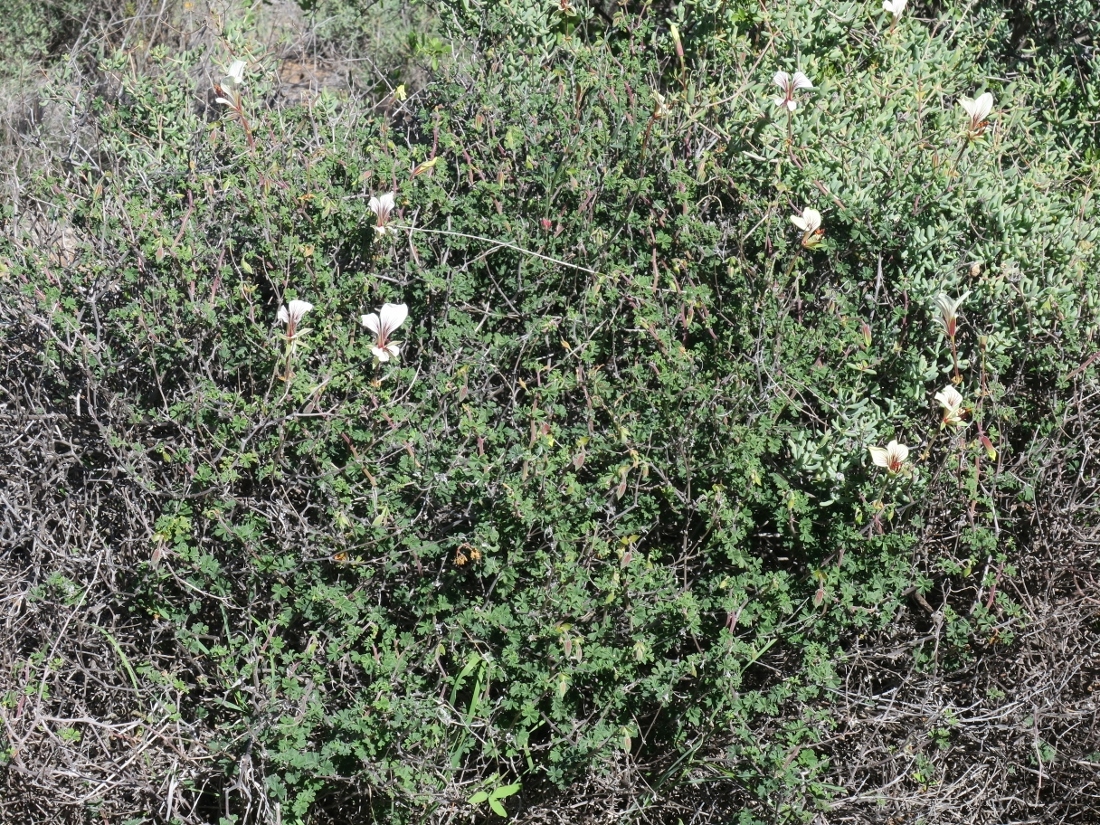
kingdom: Plantae
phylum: Tracheophyta
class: Magnoliopsida
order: Geraniales
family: Geraniaceae
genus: Pelargonium
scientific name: Pelargonium praemorsum
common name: Quinate-leaf pelargonium
